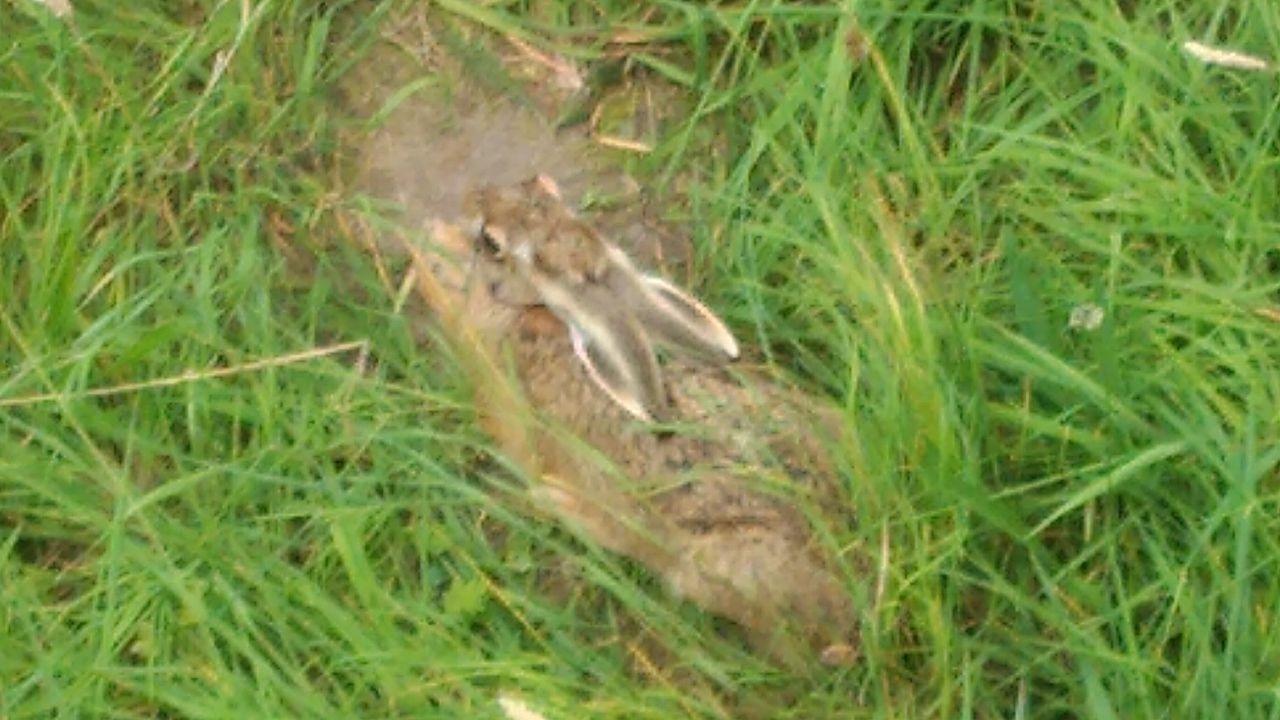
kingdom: Animalia
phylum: Chordata
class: Mammalia
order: Lagomorpha
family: Leporidae
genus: Lepus
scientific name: Lepus europaeus
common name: European hare
